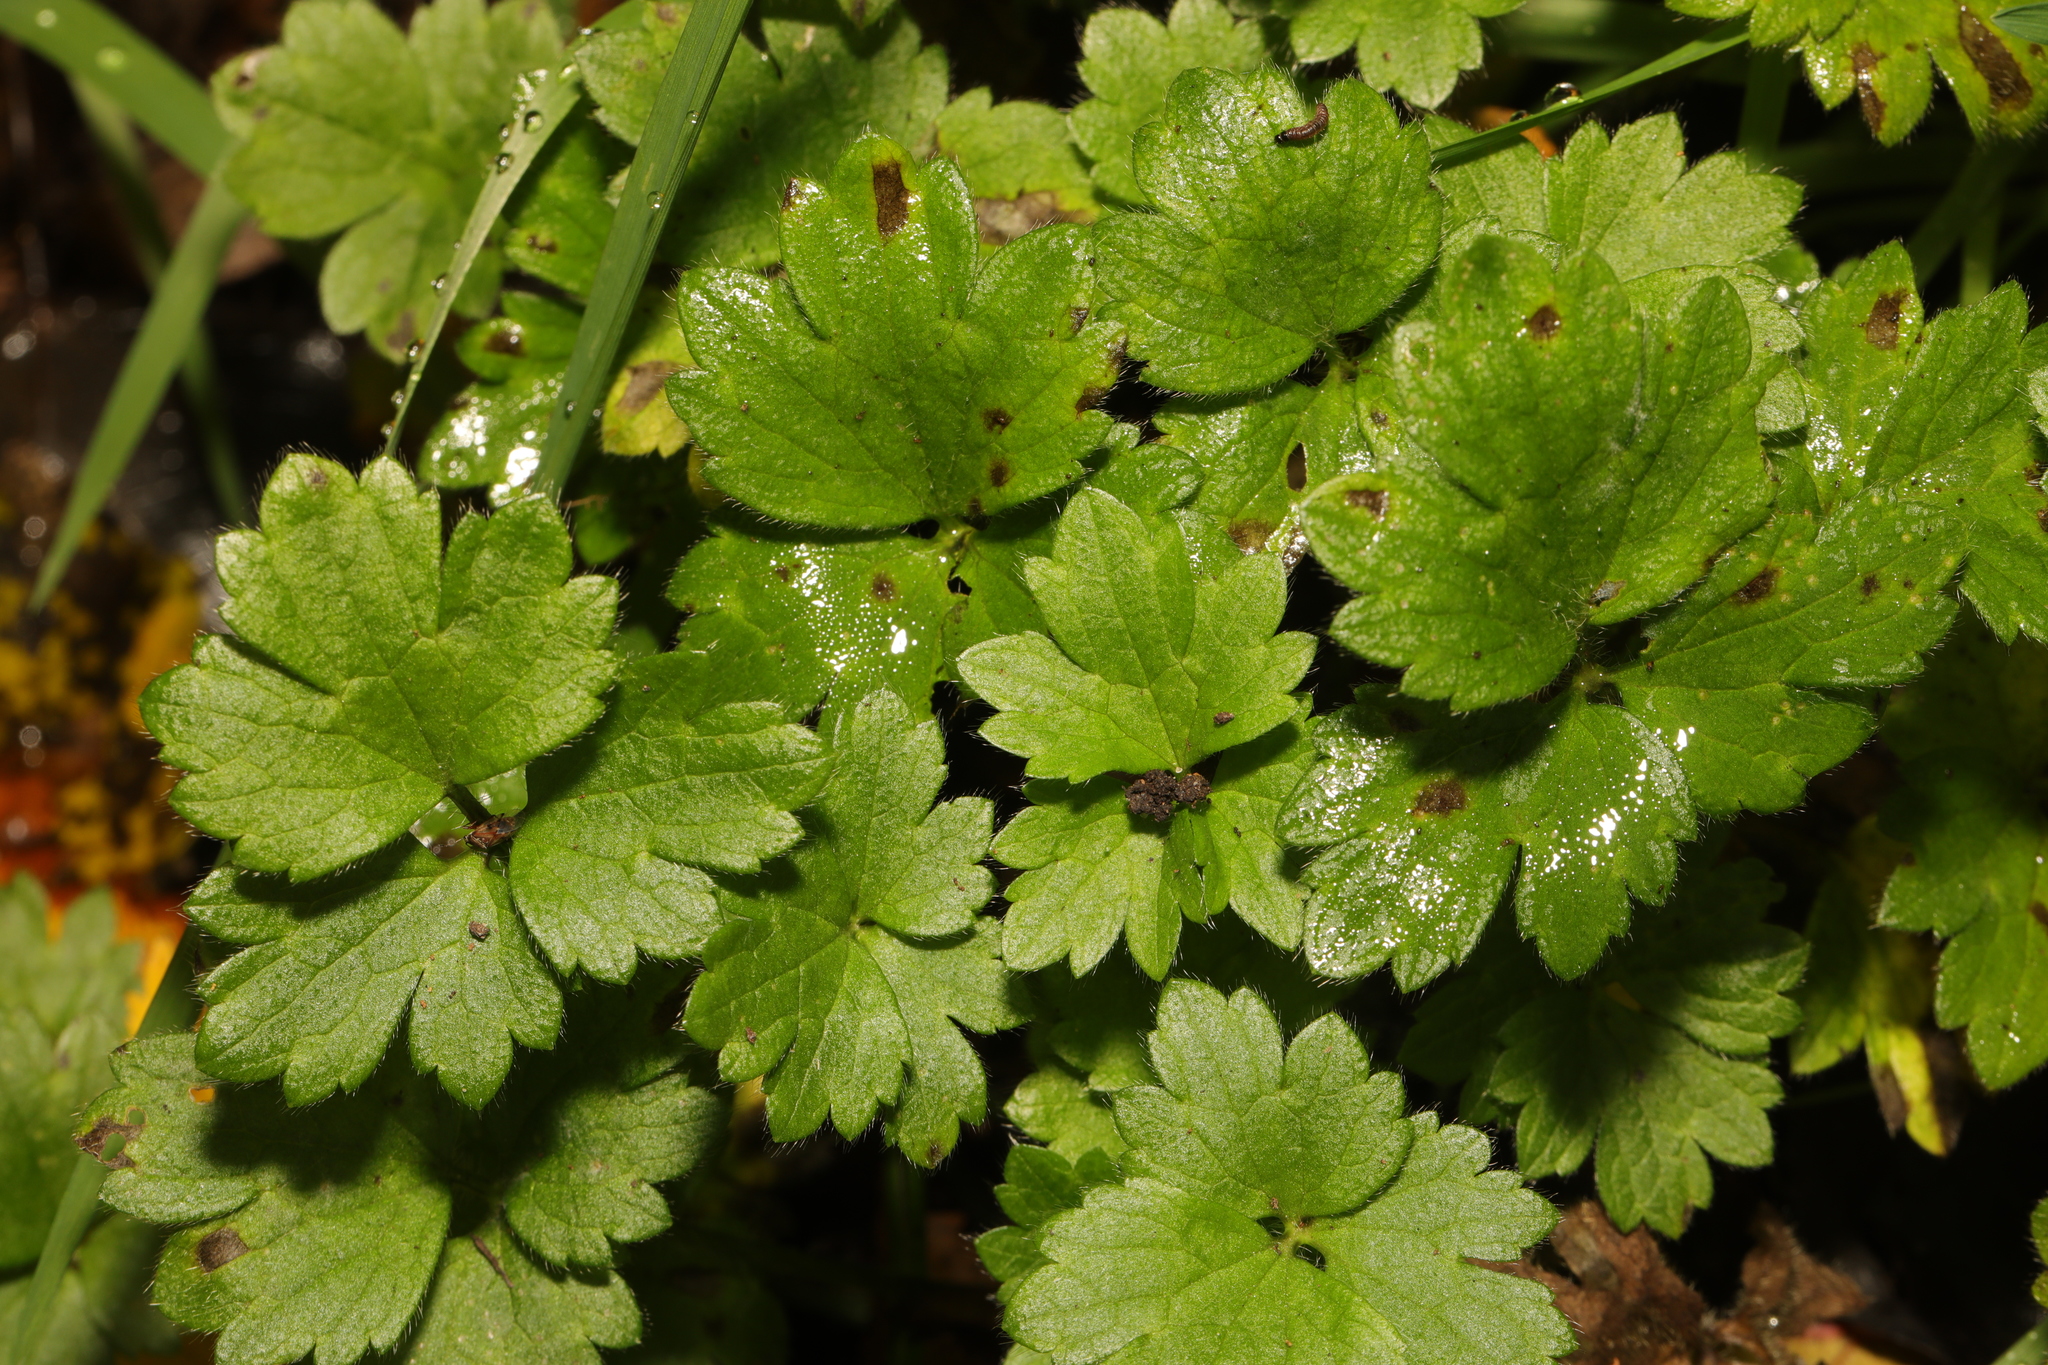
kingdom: Plantae
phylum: Tracheophyta
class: Magnoliopsida
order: Ranunculales
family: Ranunculaceae
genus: Ranunculus
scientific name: Ranunculus repens
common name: Creeping buttercup
